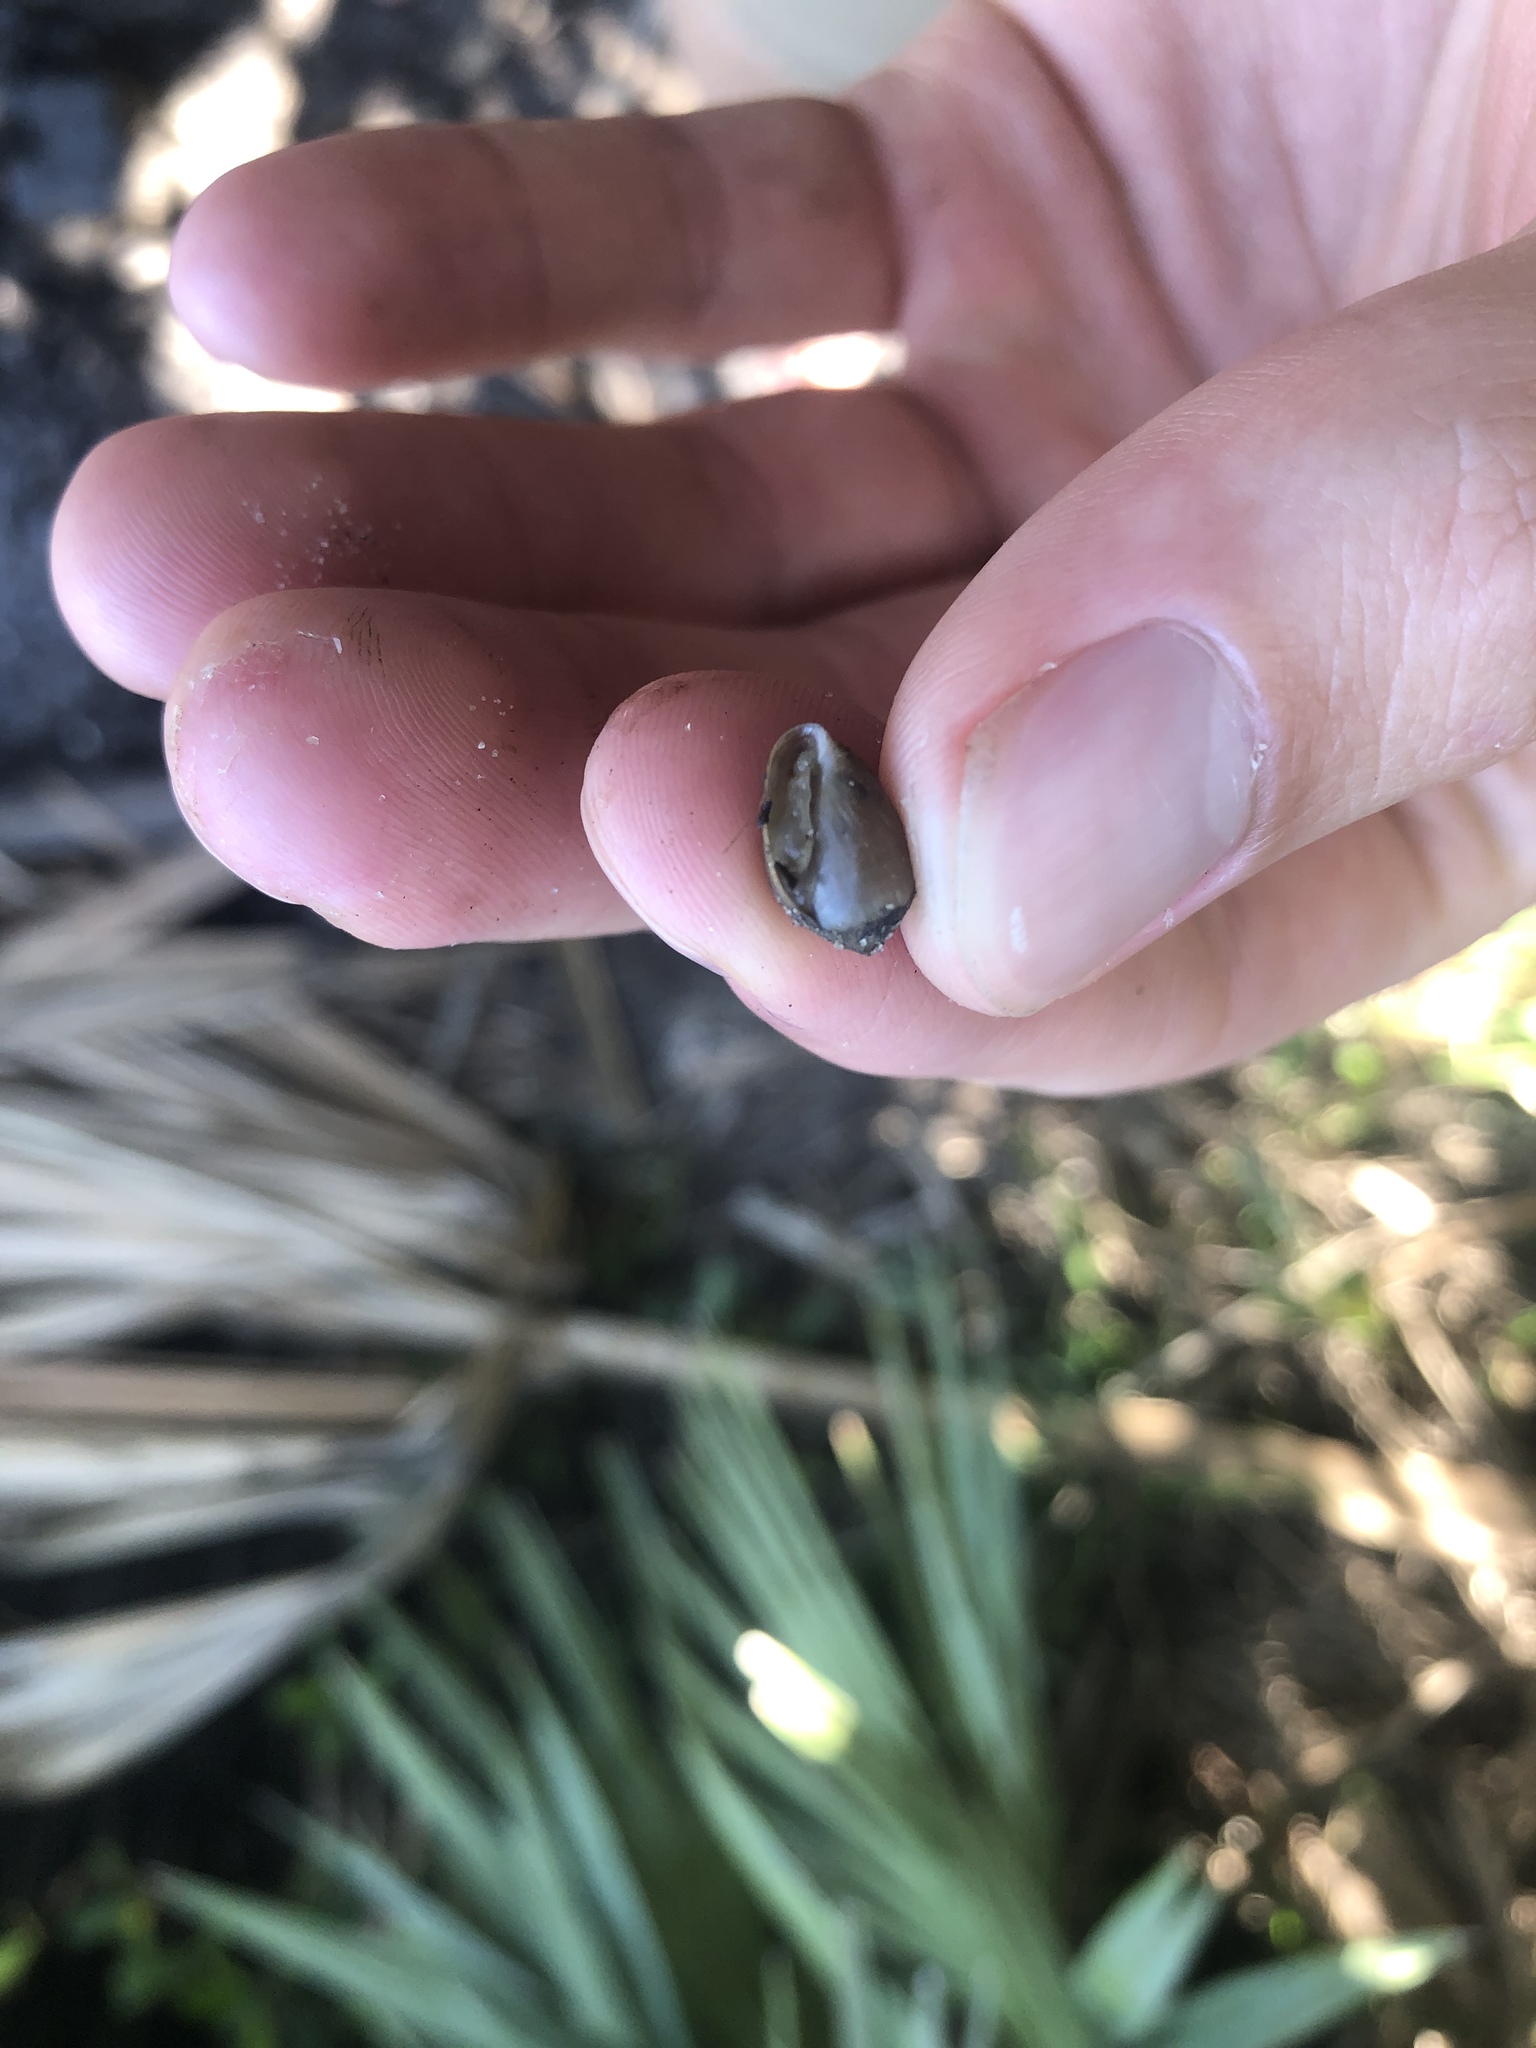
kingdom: Animalia
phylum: Mollusca
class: Gastropoda
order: Ellobiida
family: Ellobiidae
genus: Melampus
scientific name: Melampus coffea
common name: Coffee bean snail
